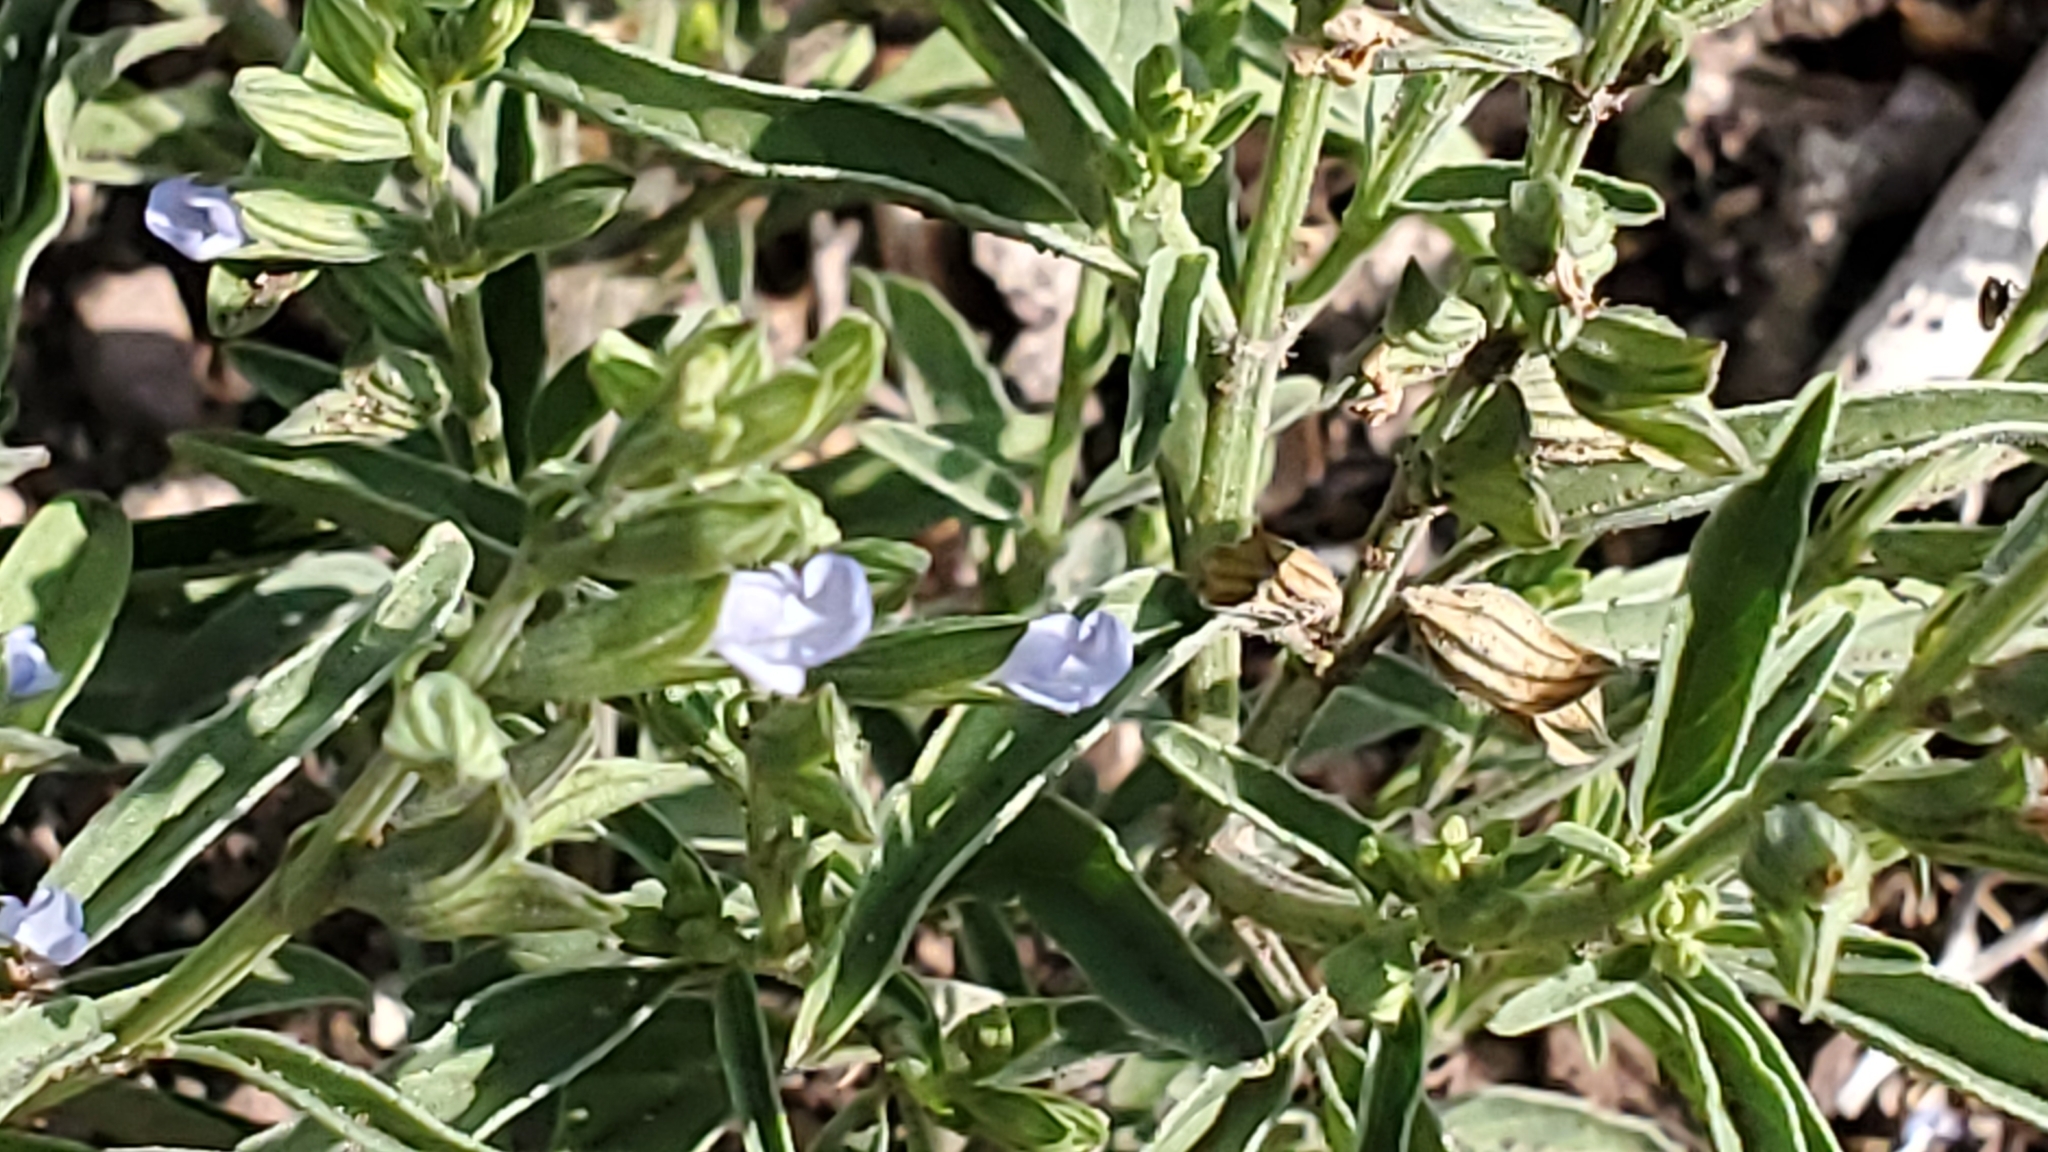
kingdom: Plantae
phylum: Tracheophyta
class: Magnoliopsida
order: Lamiales
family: Lamiaceae
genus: Salvia
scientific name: Salvia reflexa
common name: Mintweed
